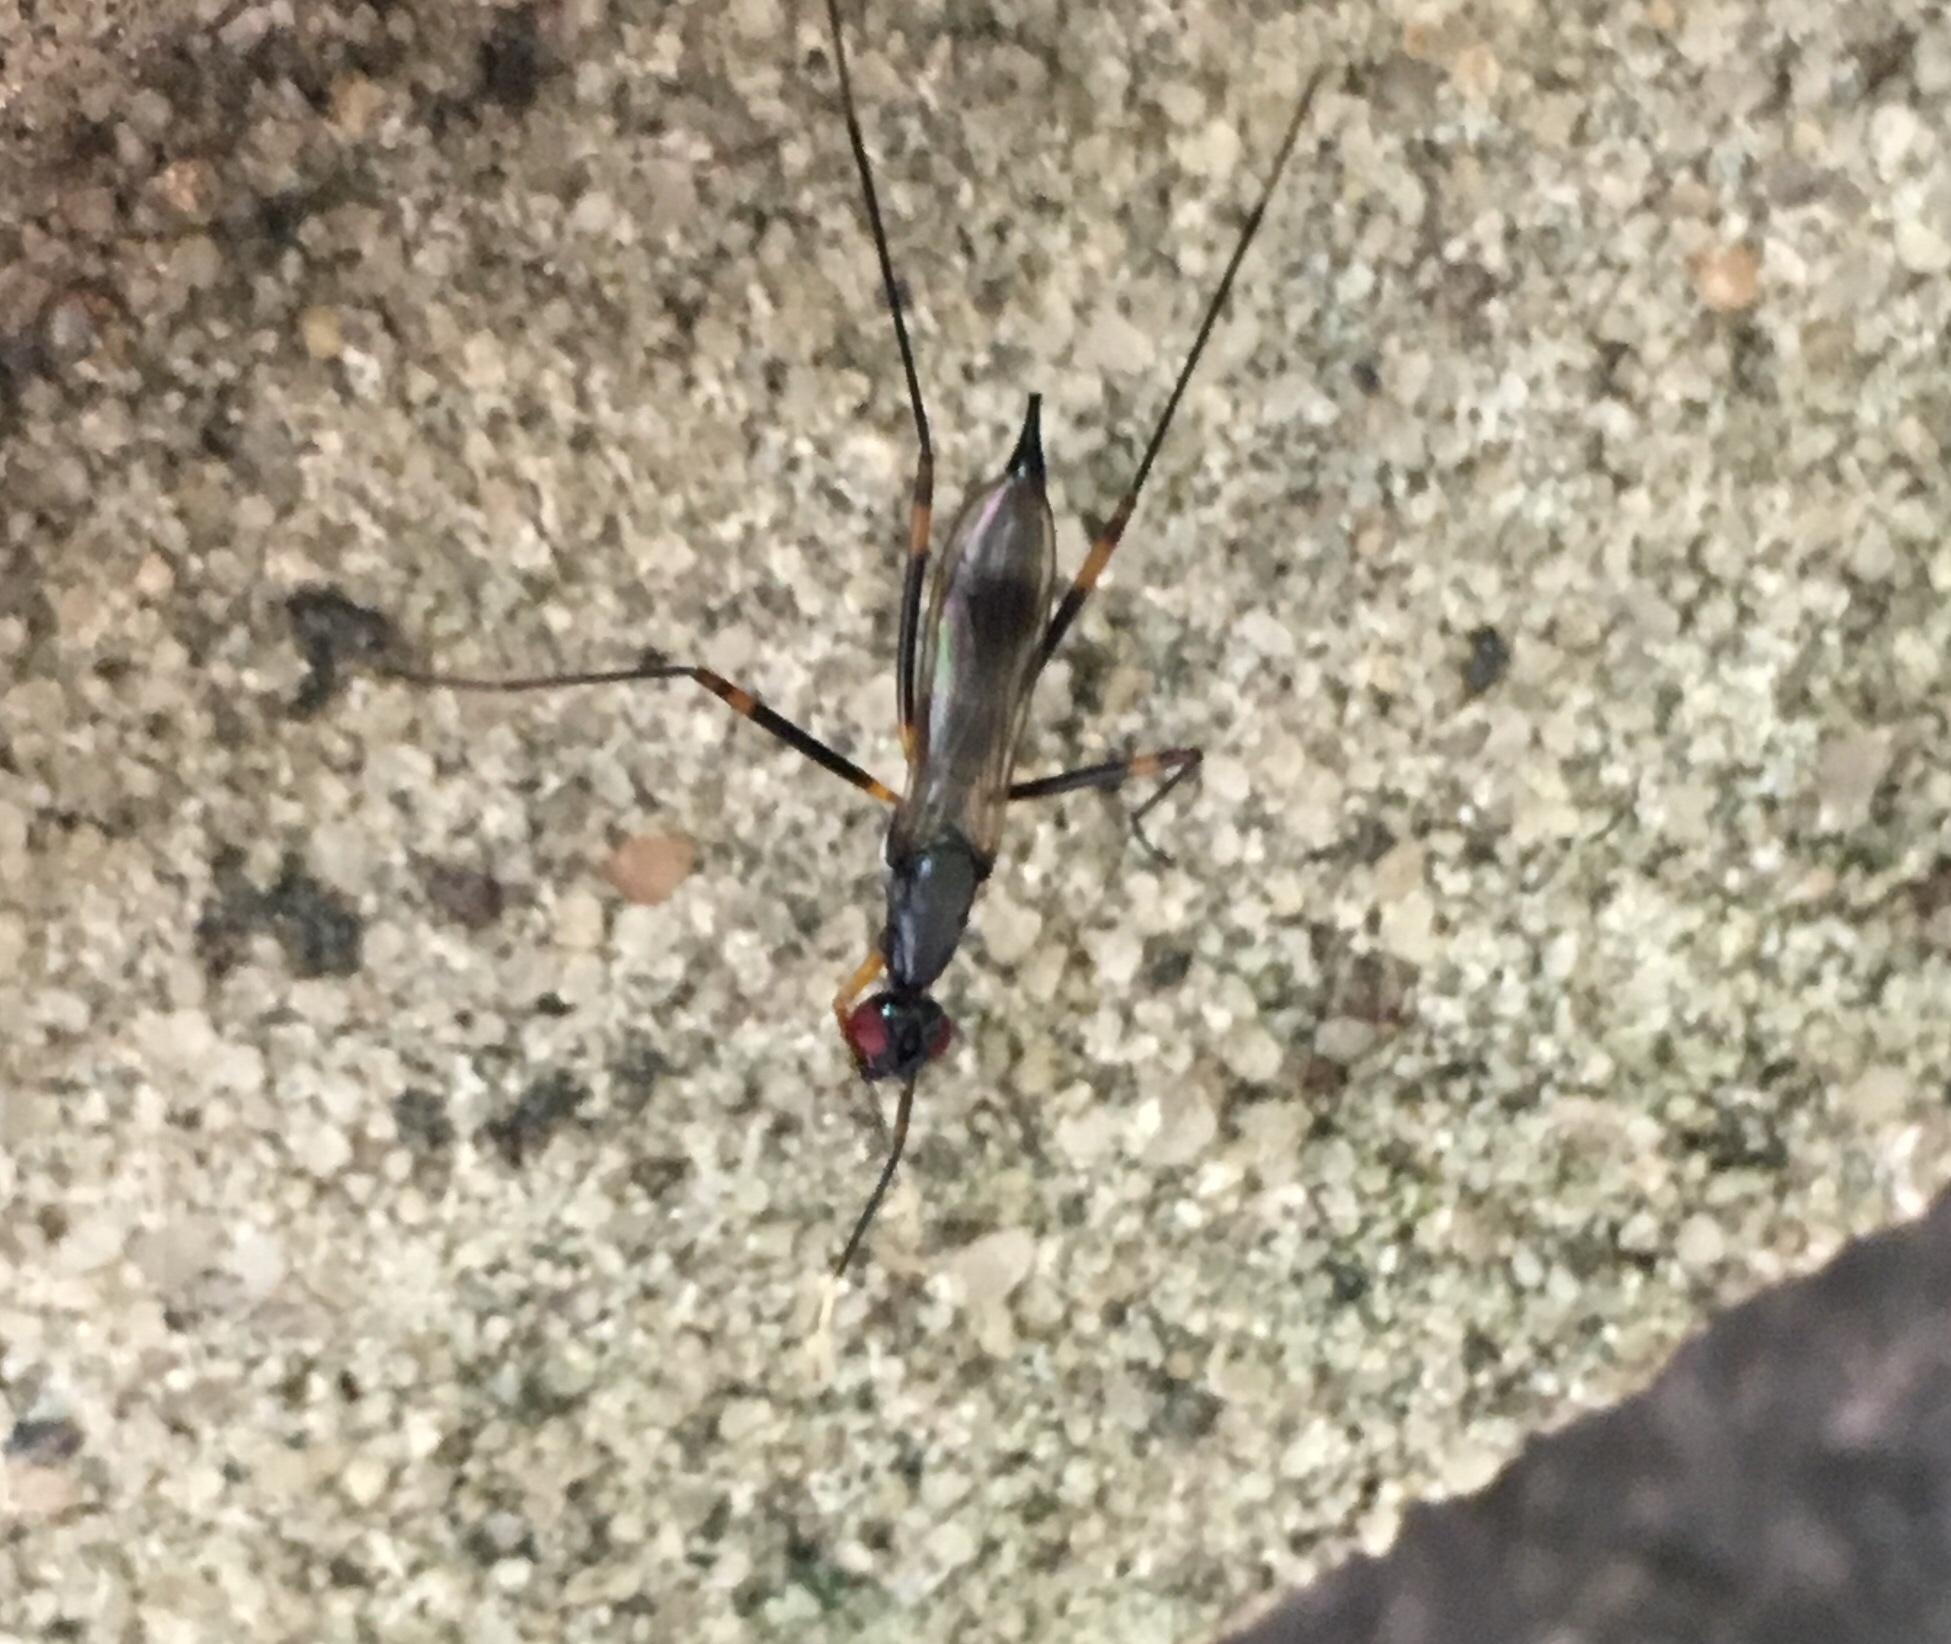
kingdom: Animalia
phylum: Arthropoda
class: Insecta
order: Diptera
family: Micropezidae
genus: Rainieria
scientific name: Rainieria antennaepes
